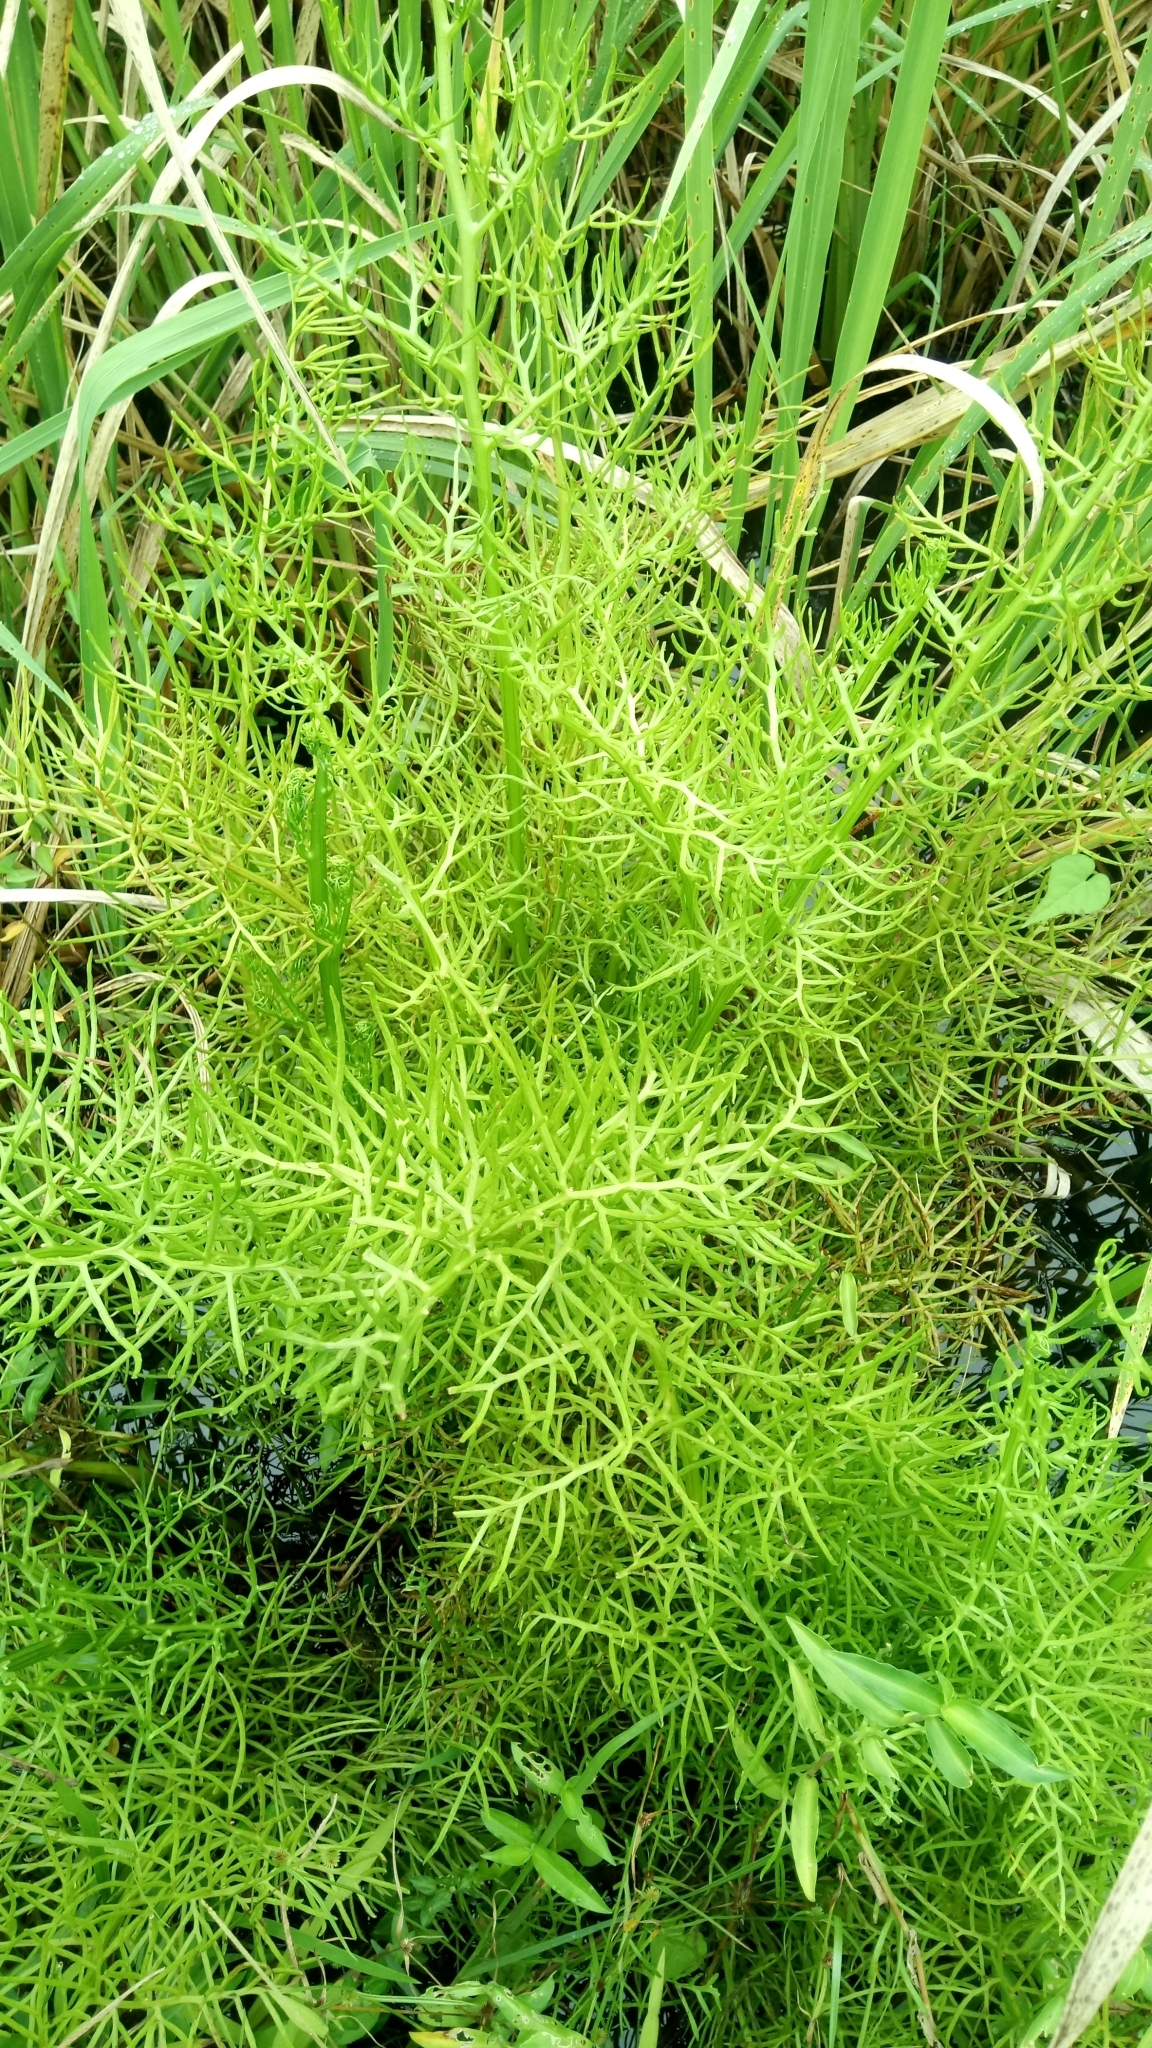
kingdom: Plantae
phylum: Tracheophyta
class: Polypodiopsida
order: Polypodiales
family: Pteridaceae
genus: Ceratopteris
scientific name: Ceratopteris thalictroides
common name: Water fern
